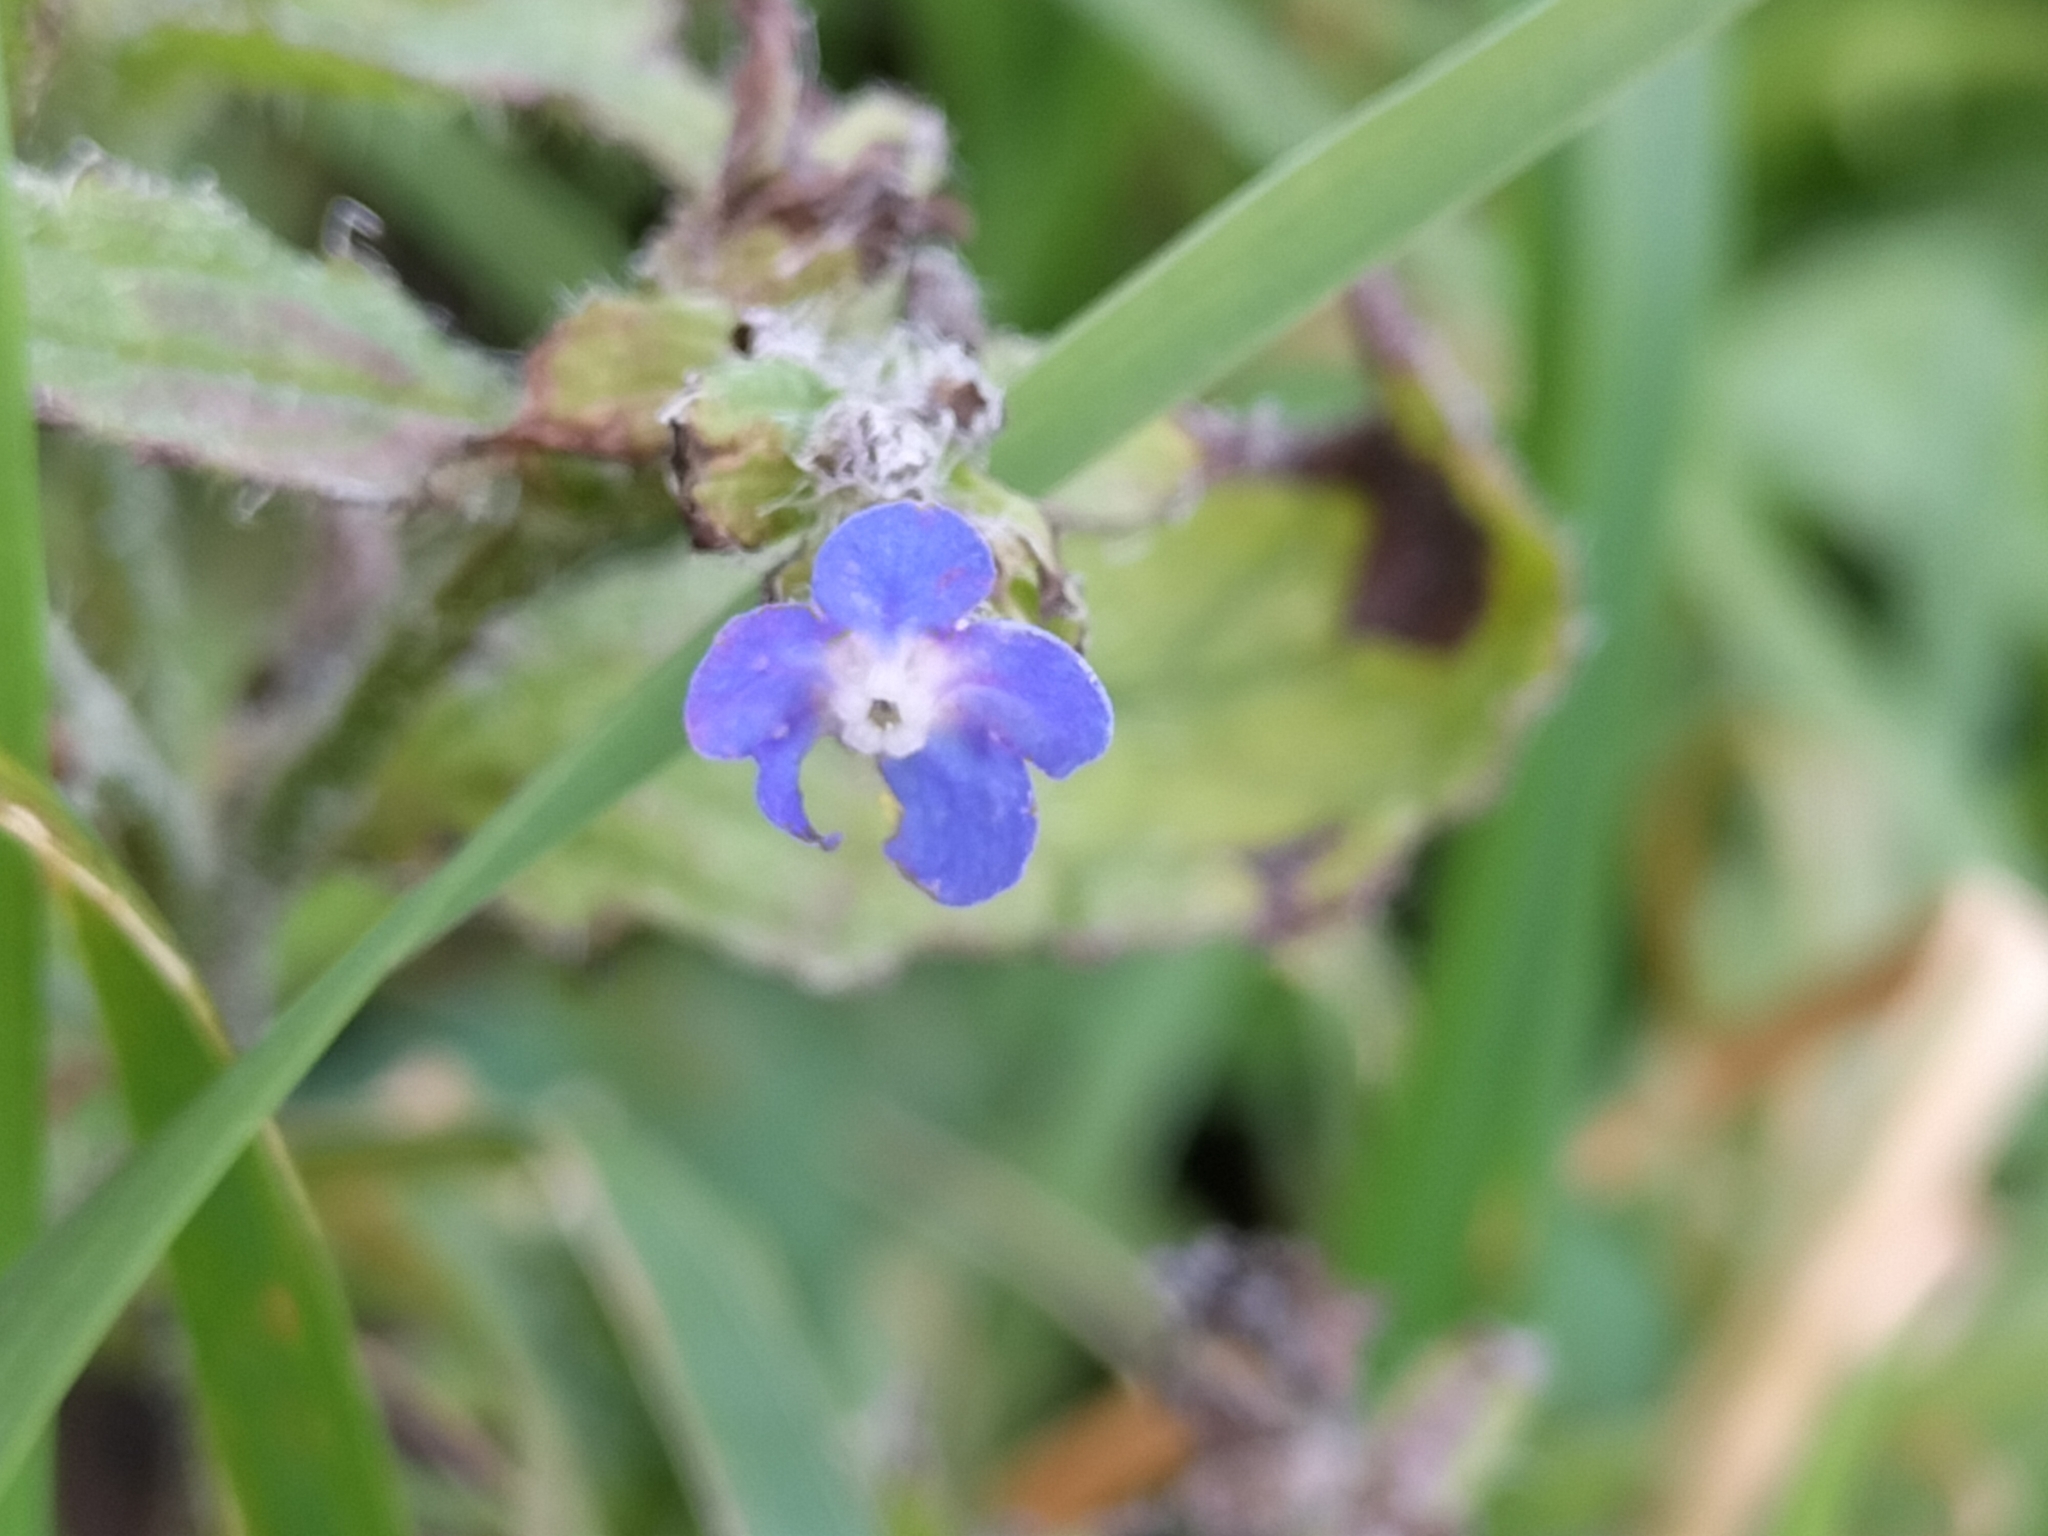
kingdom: Plantae
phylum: Tracheophyta
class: Magnoliopsida
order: Boraginales
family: Boraginaceae
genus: Pentaglottis
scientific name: Pentaglottis sempervirens
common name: Green alkanet
